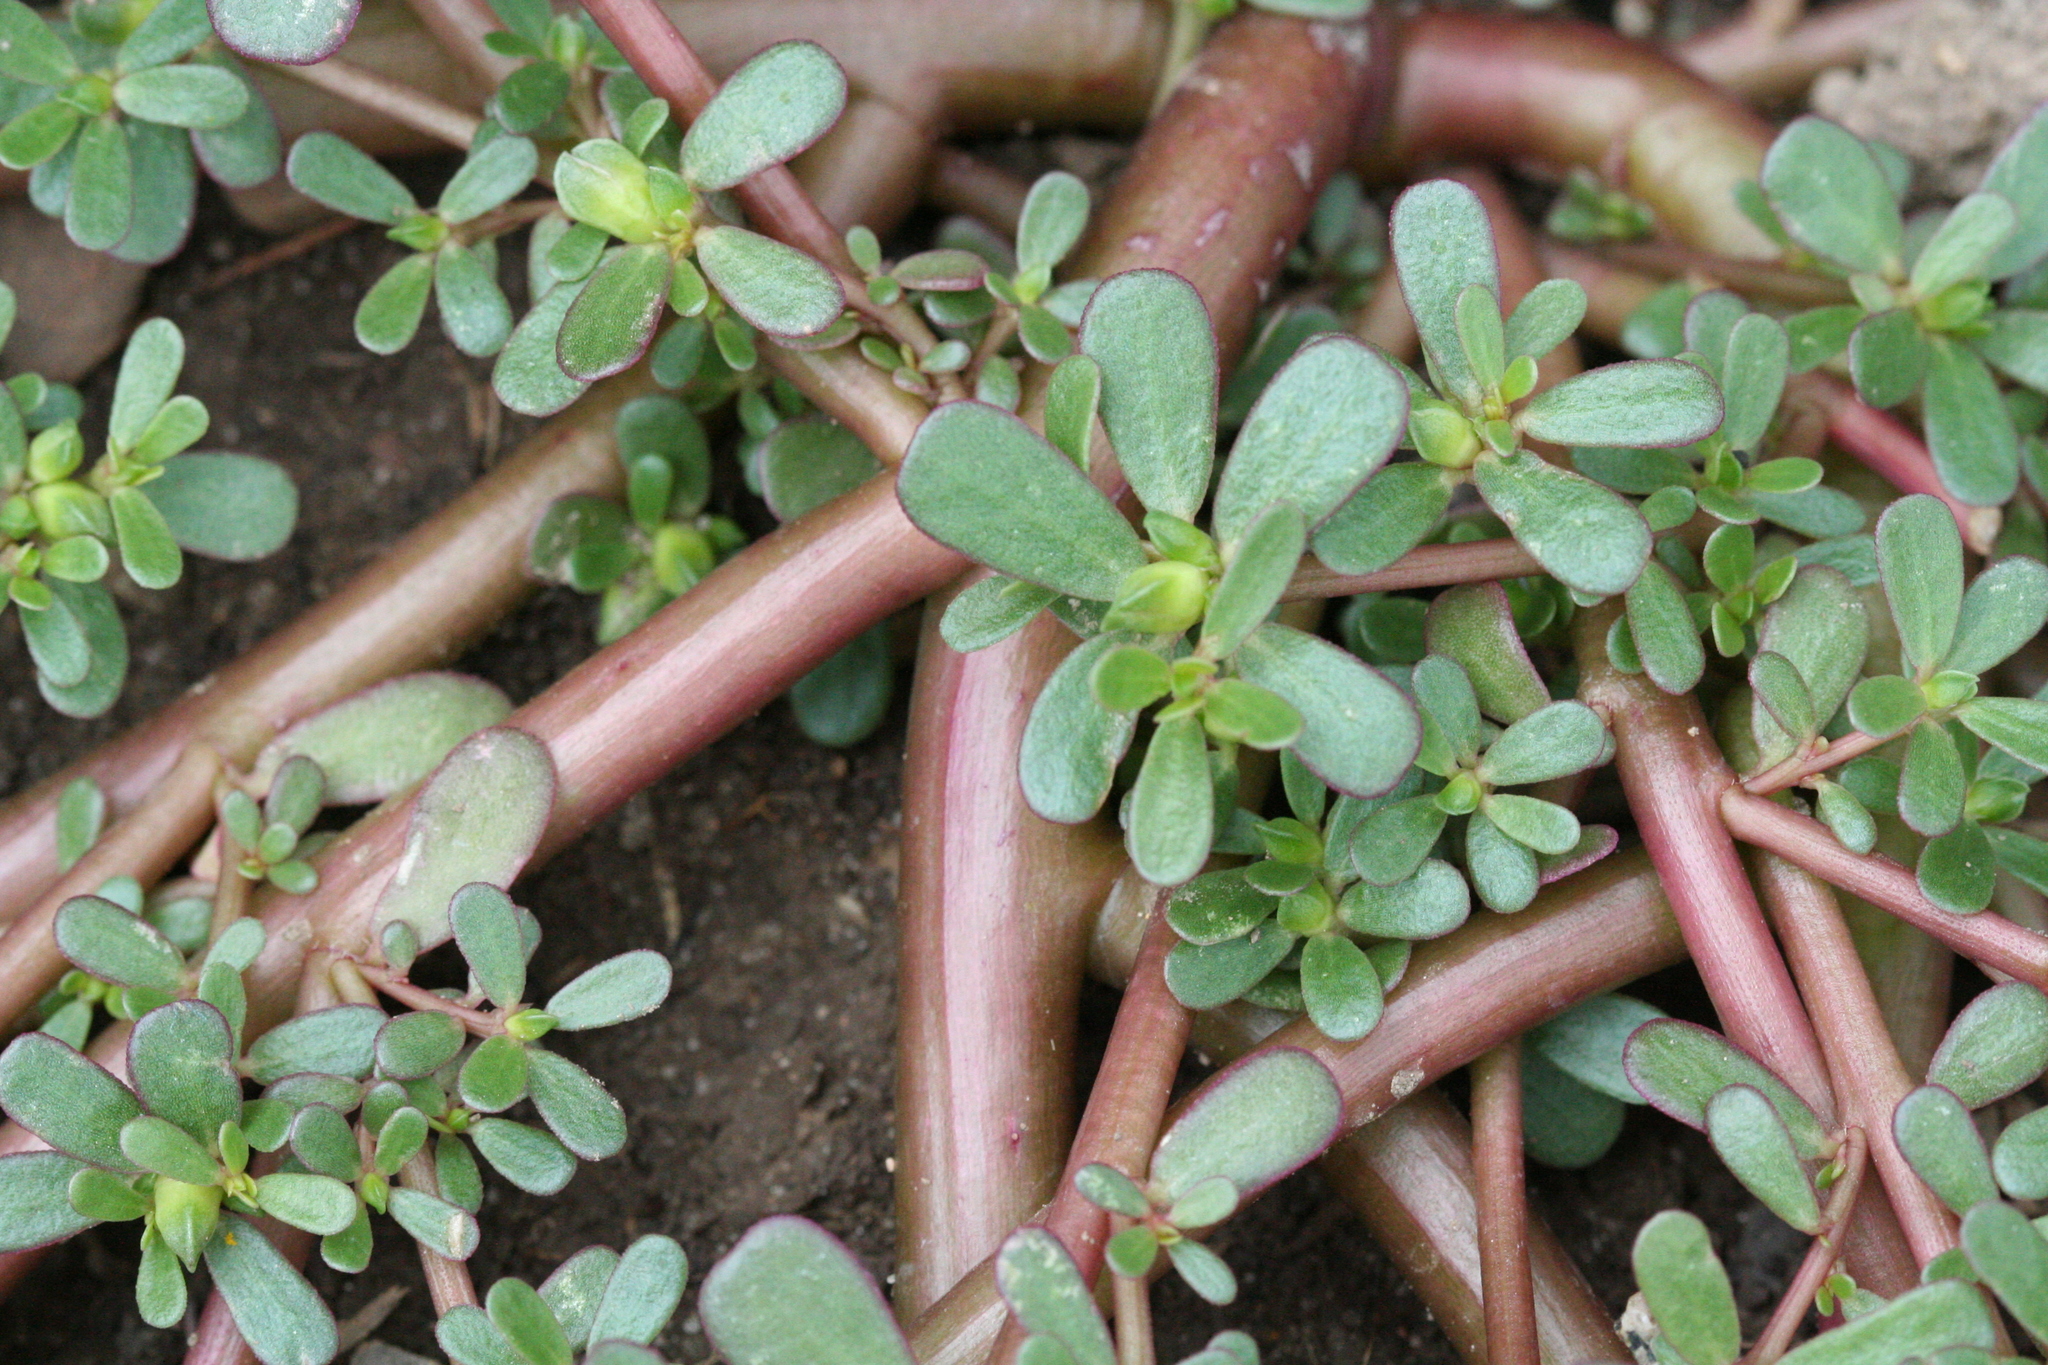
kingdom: Plantae
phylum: Tracheophyta
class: Magnoliopsida
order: Caryophyllales
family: Portulacaceae
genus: Portulaca
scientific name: Portulaca oleracea
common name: Common purslane
